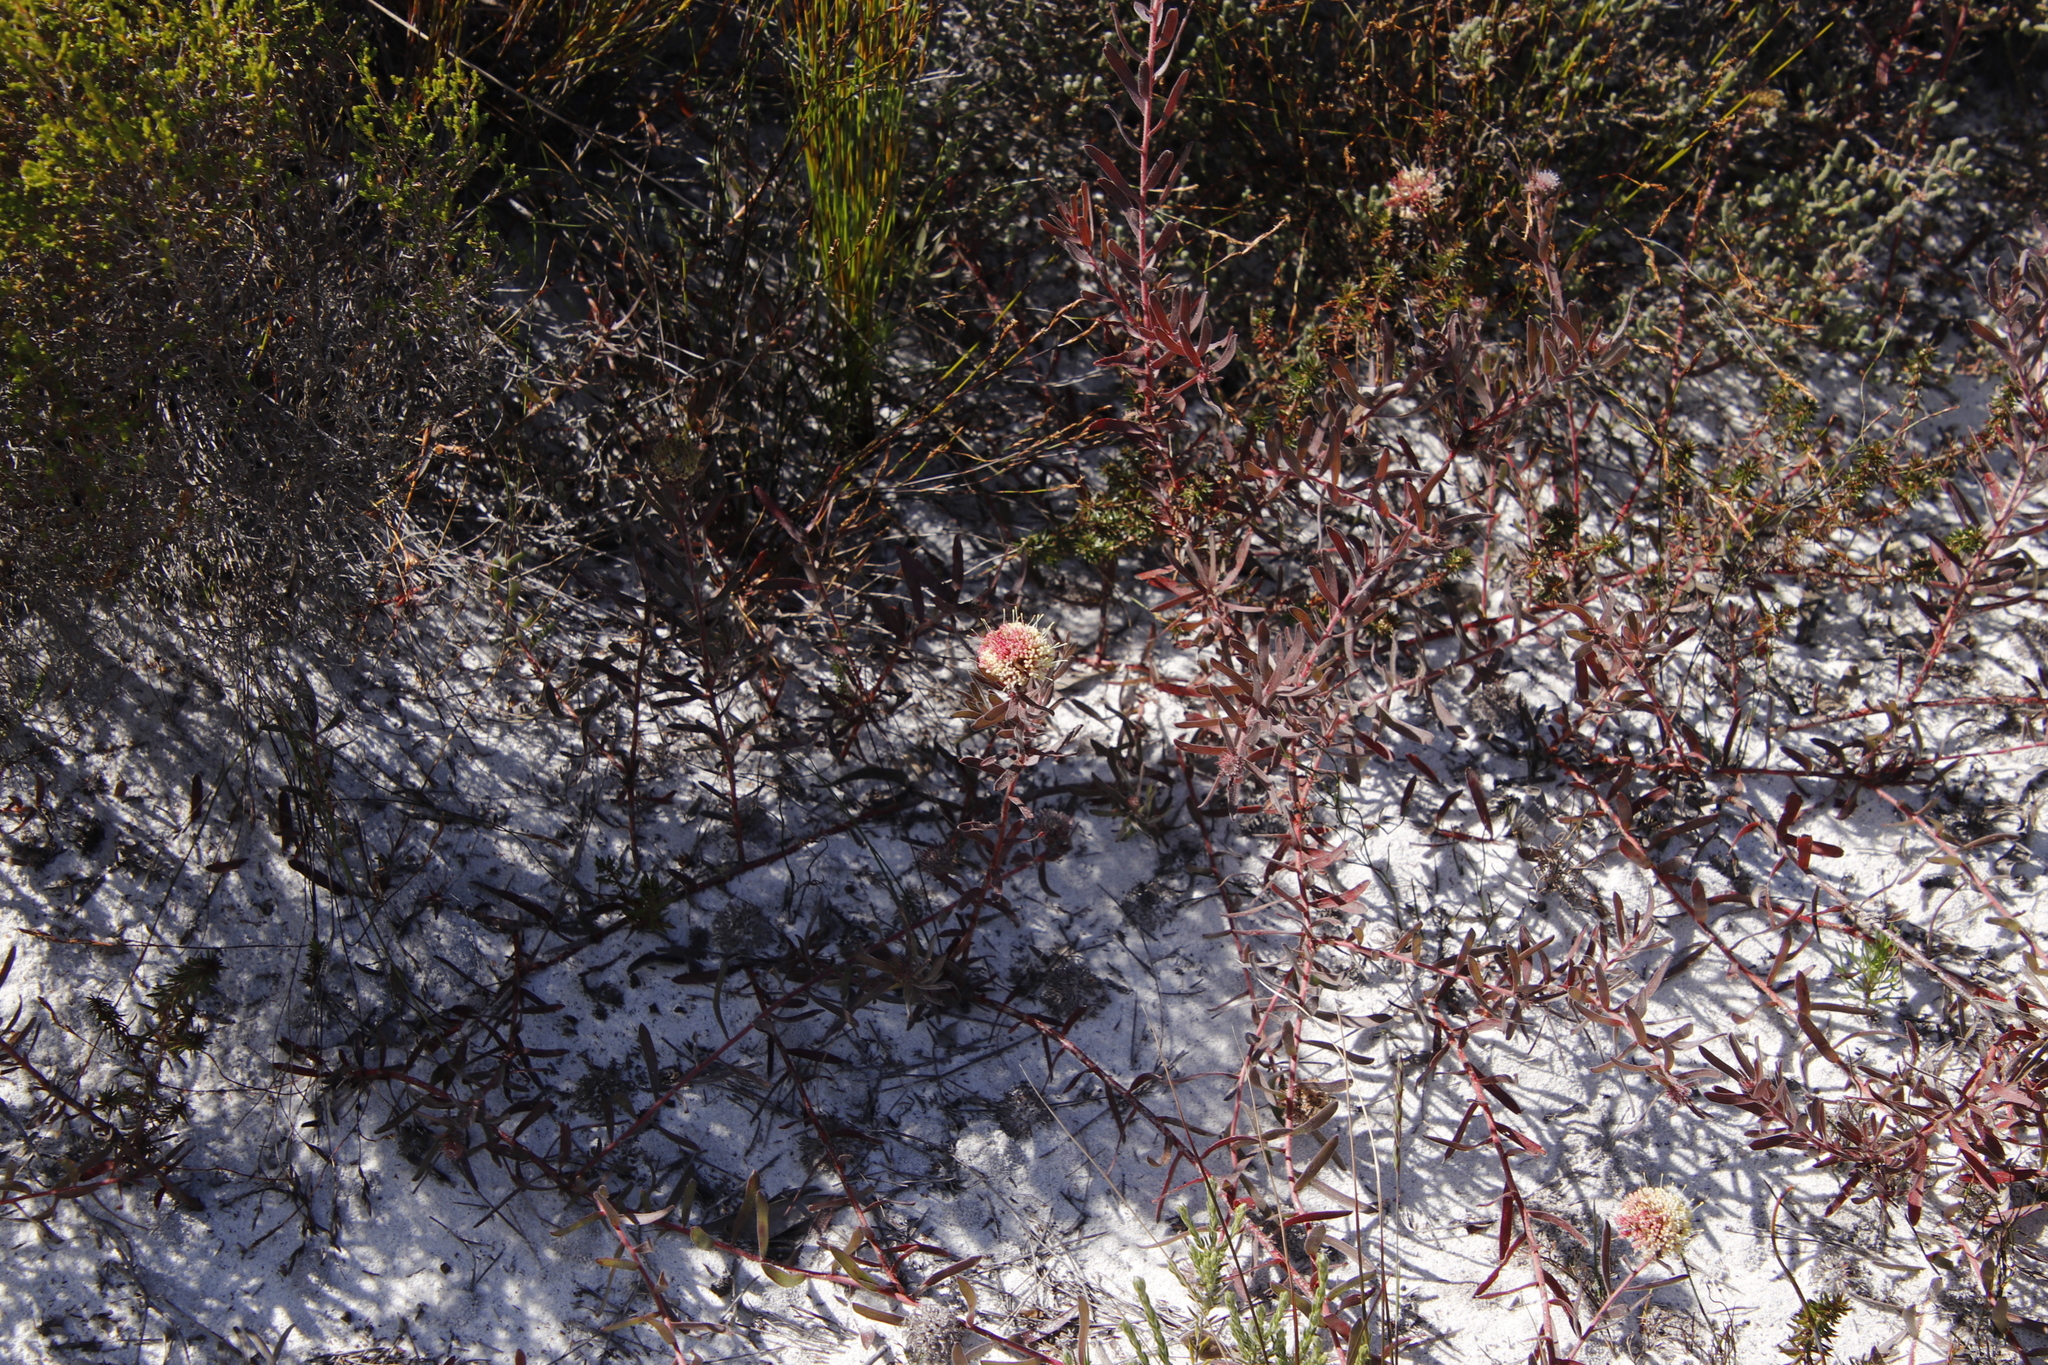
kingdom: Plantae
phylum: Tracheophyta
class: Magnoliopsida
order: Proteales
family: Proteaceae
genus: Leucospermum
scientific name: Leucospermum pedunculatum
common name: White-trailing pincushion
